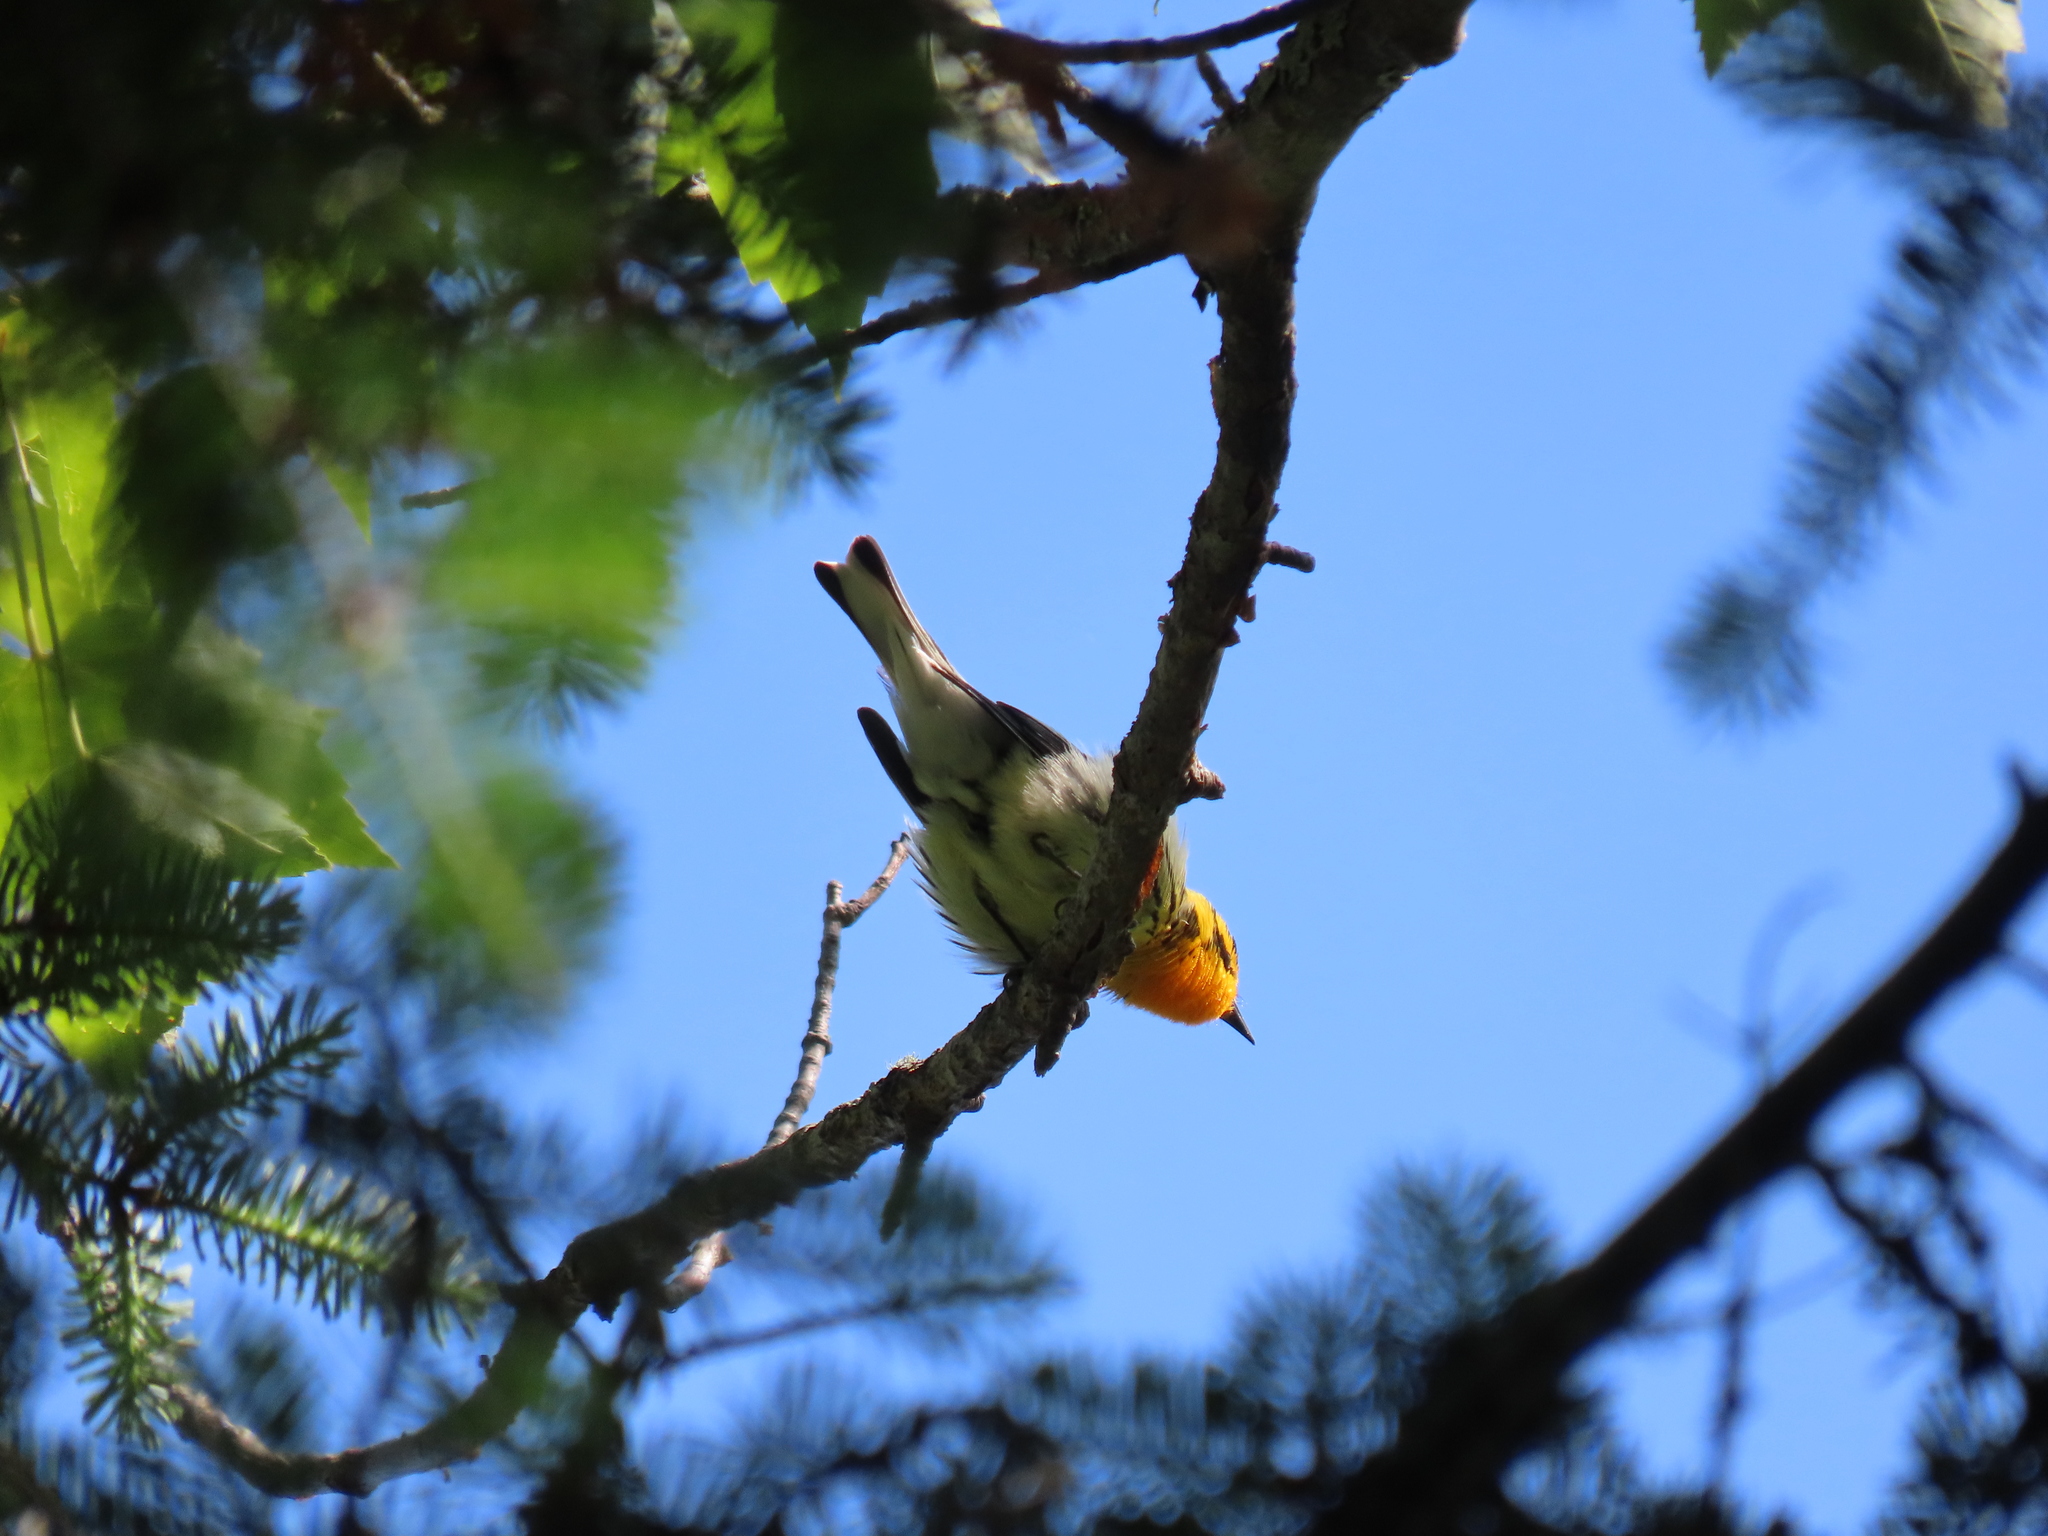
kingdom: Animalia
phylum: Chordata
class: Aves
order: Passeriformes
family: Parulidae
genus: Setophaga
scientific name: Setophaga fusca
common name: Blackburnian warbler
